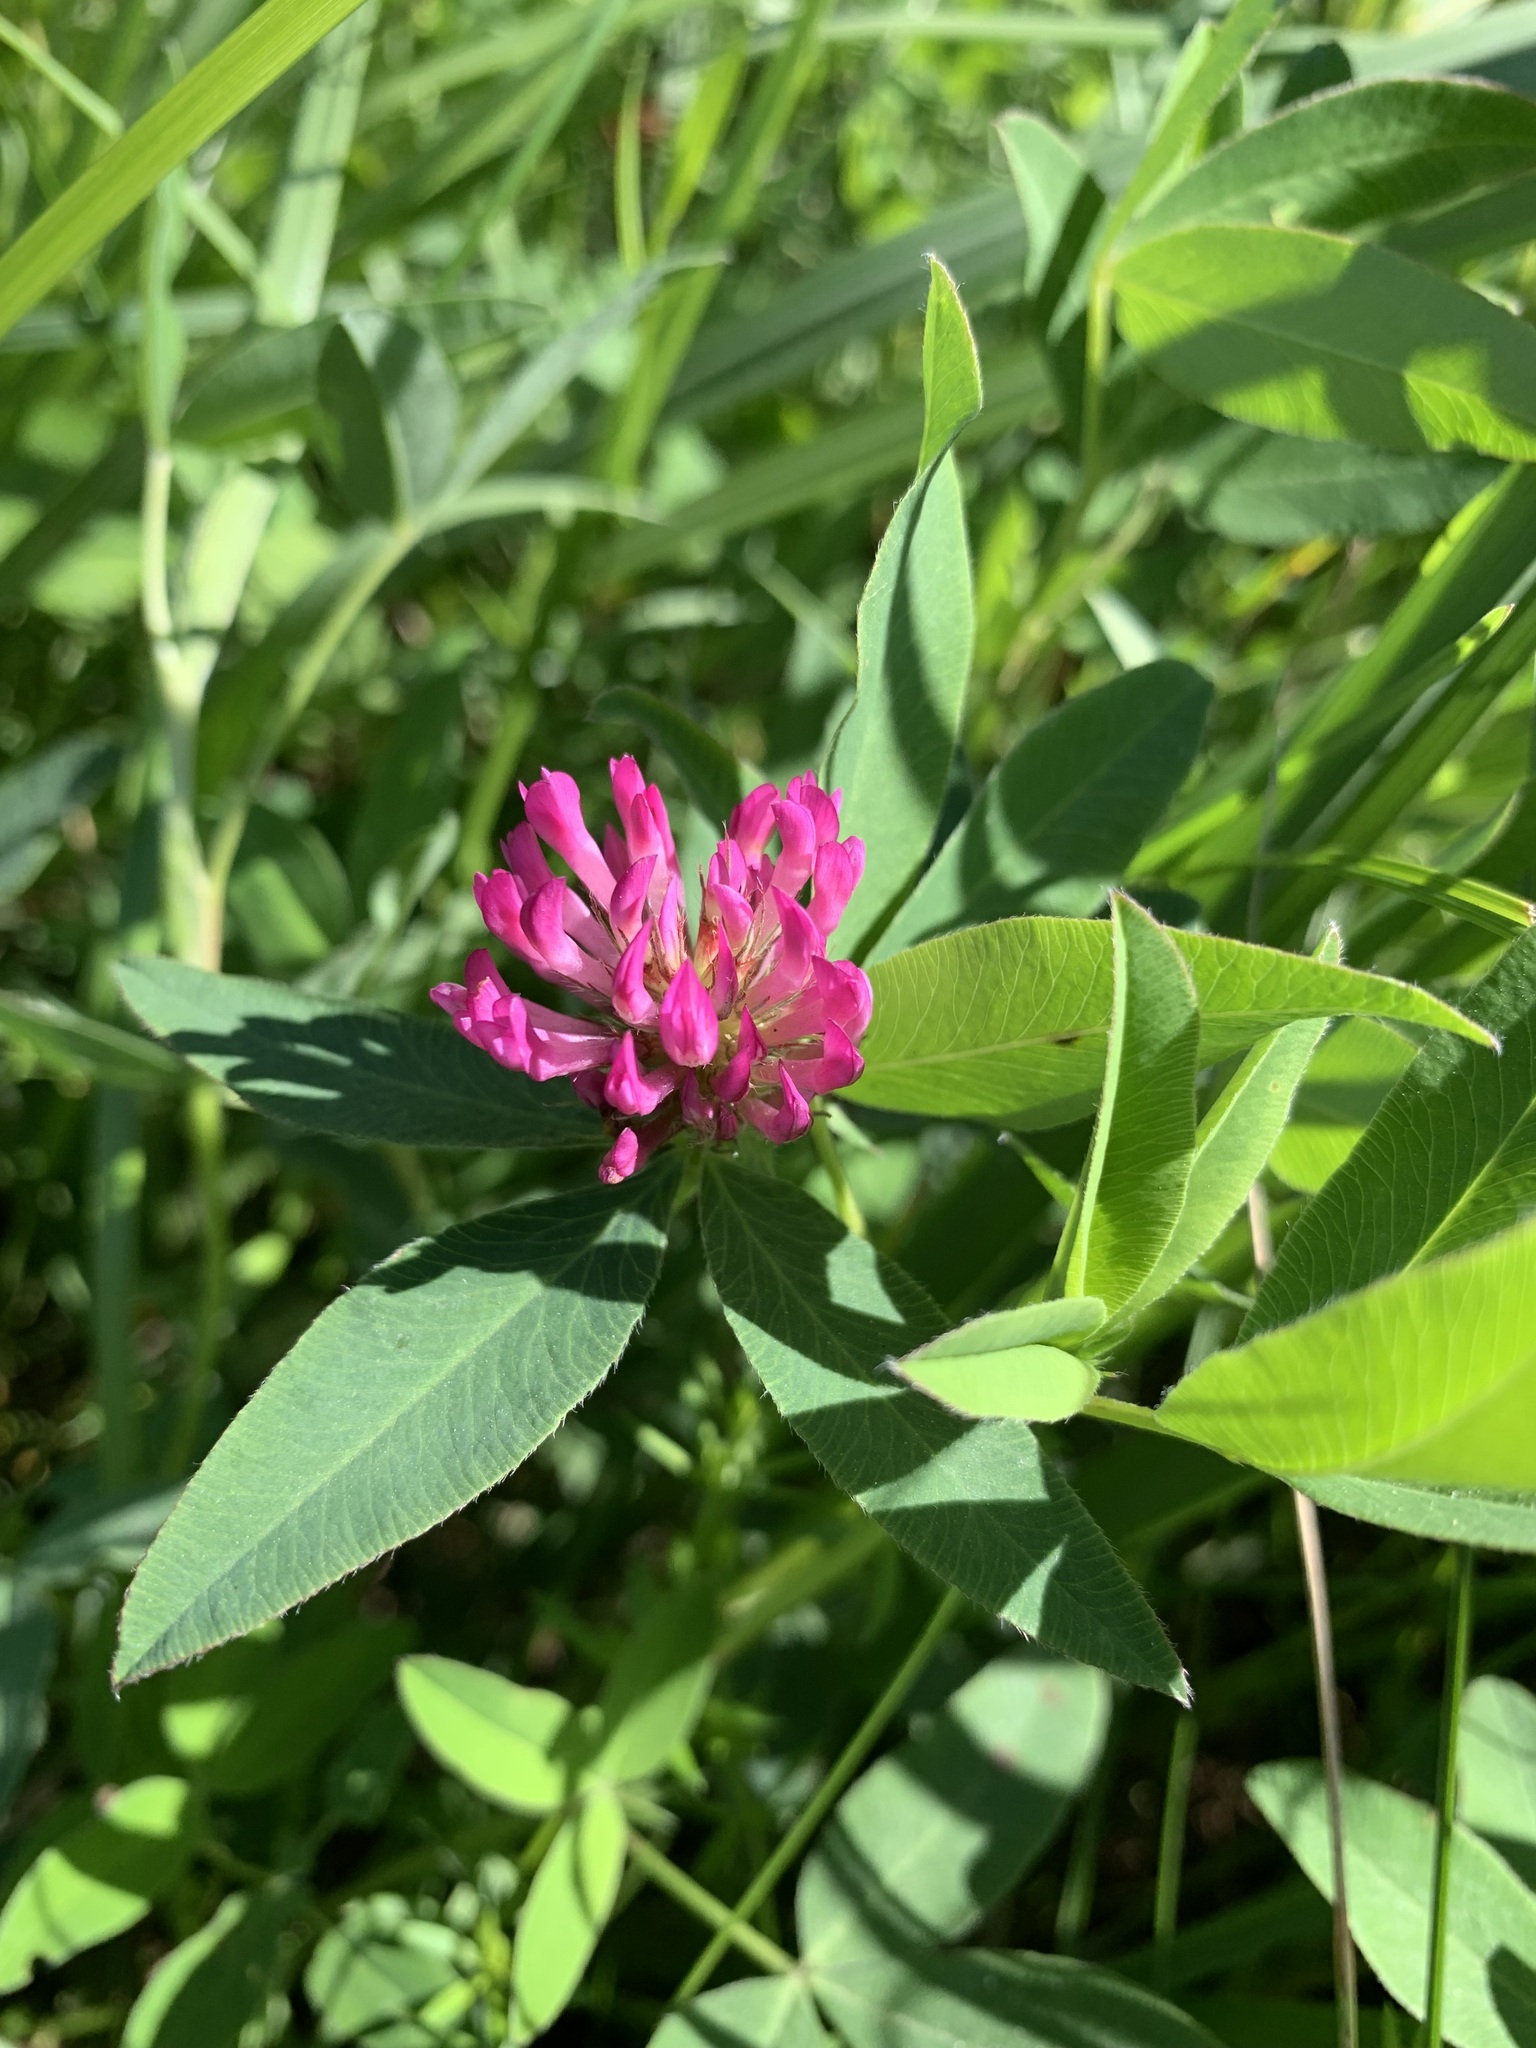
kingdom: Plantae
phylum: Tracheophyta
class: Magnoliopsida
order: Fabales
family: Fabaceae
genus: Trifolium
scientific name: Trifolium medium
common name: Zigzag clover
